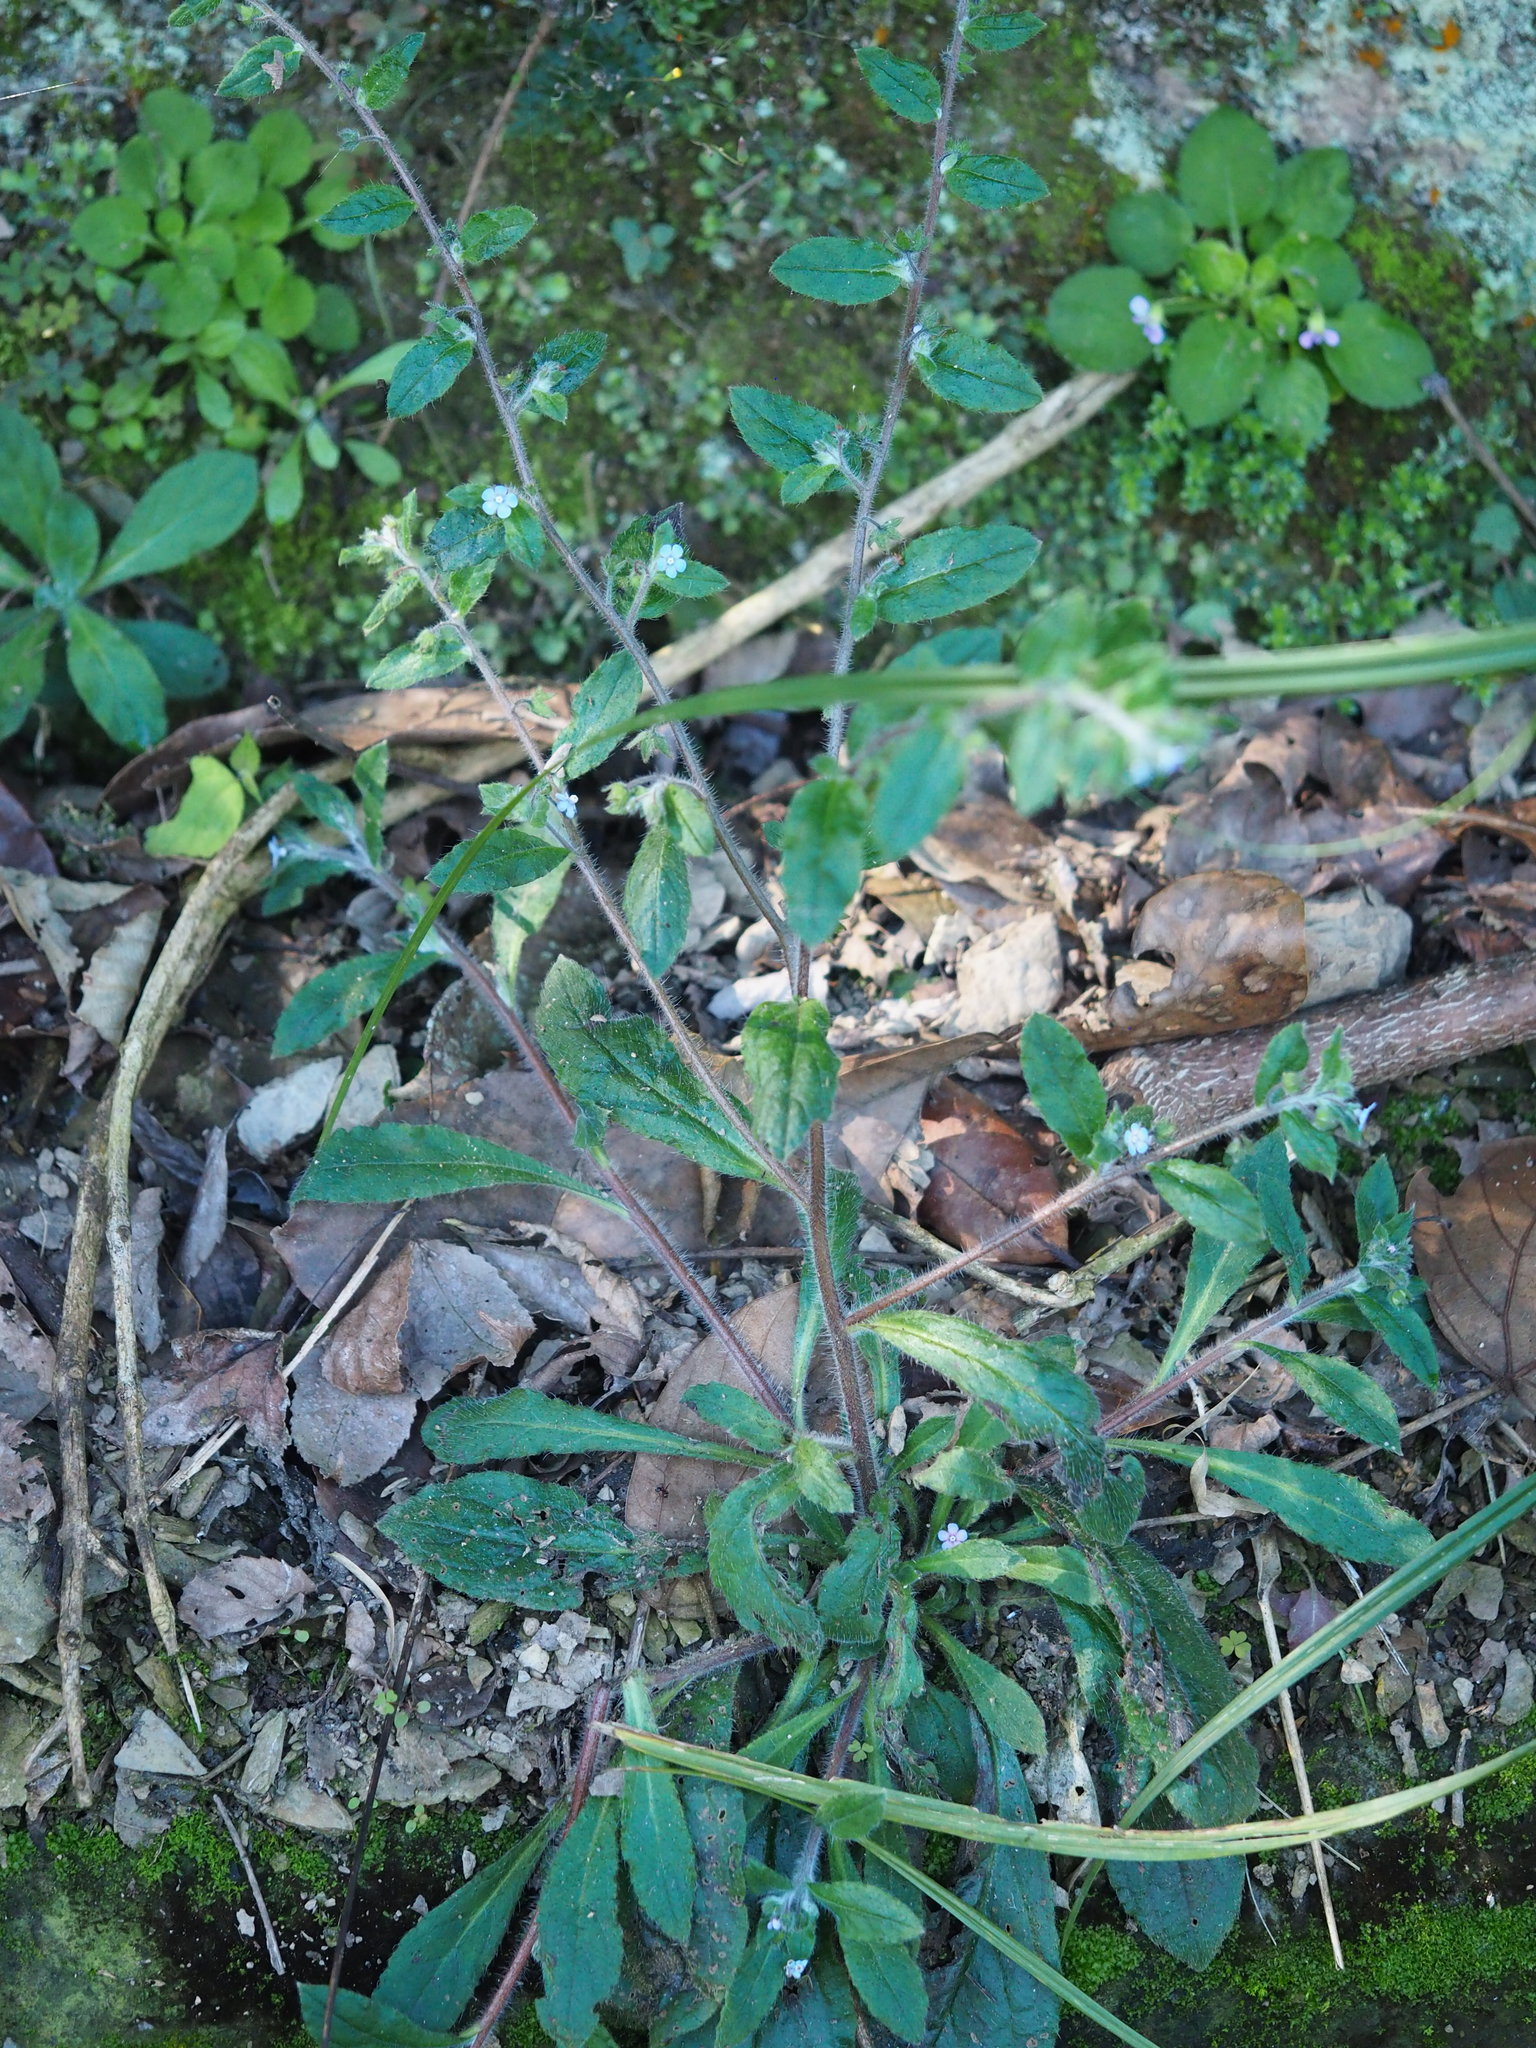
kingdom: Plantae
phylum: Tracheophyta
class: Magnoliopsida
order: Boraginales
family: Boraginaceae
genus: Thyrocarpus
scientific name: Thyrocarpus sampsonii
